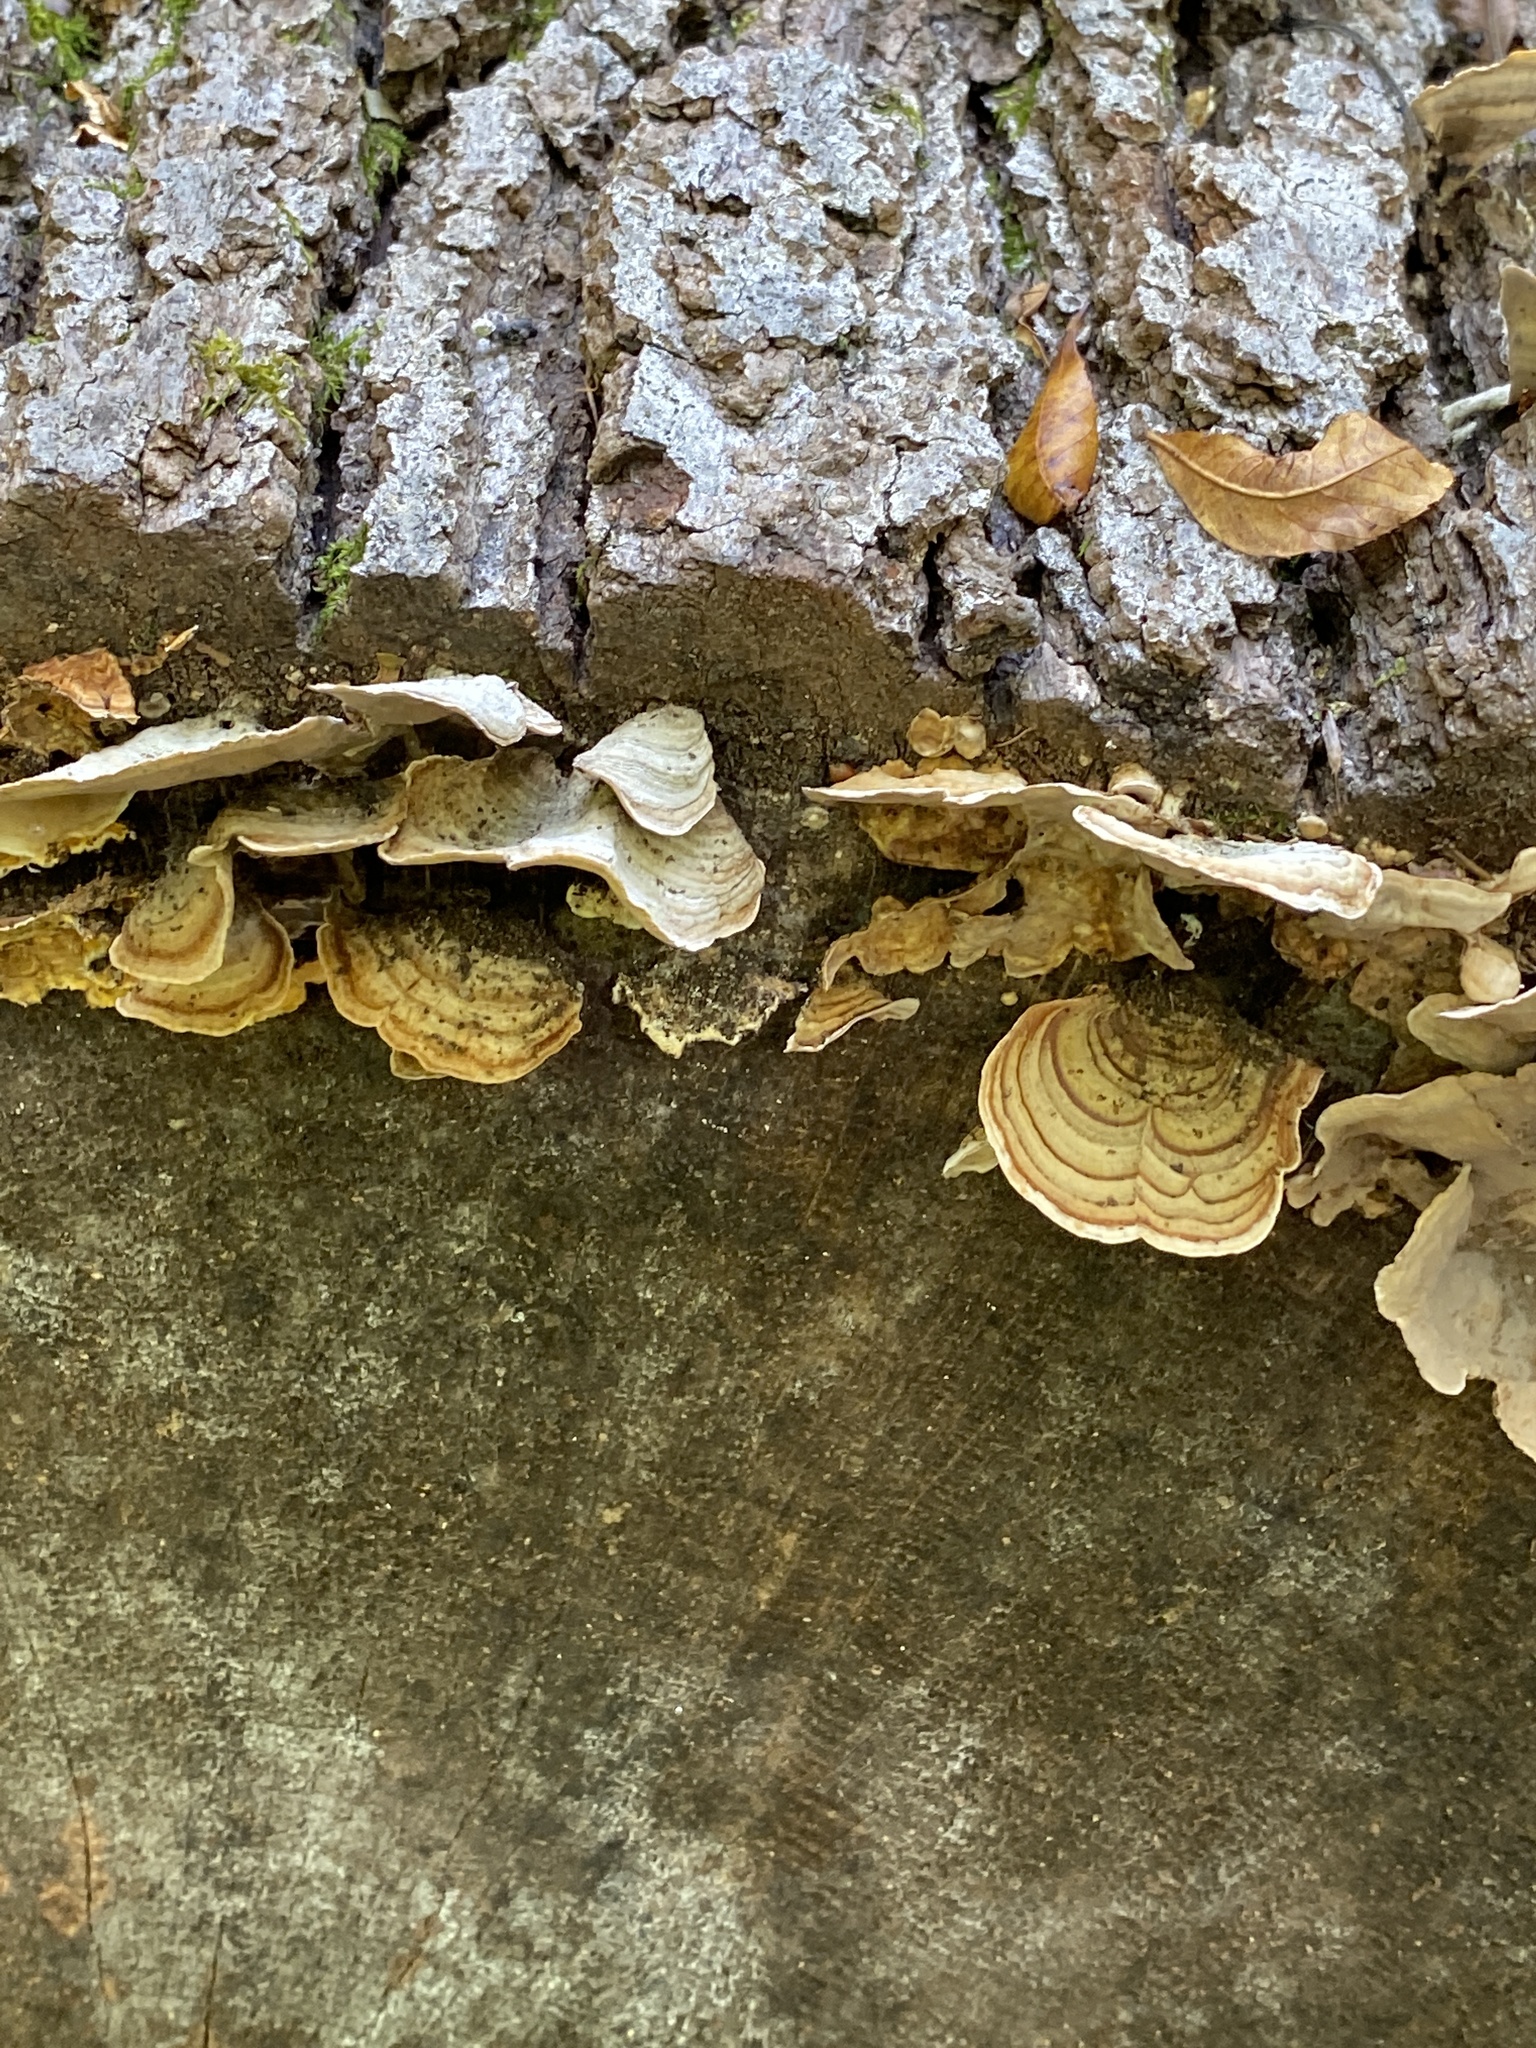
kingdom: Fungi
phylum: Basidiomycota
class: Agaricomycetes
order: Russulales
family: Stereaceae
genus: Stereum
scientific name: Stereum lobatum
